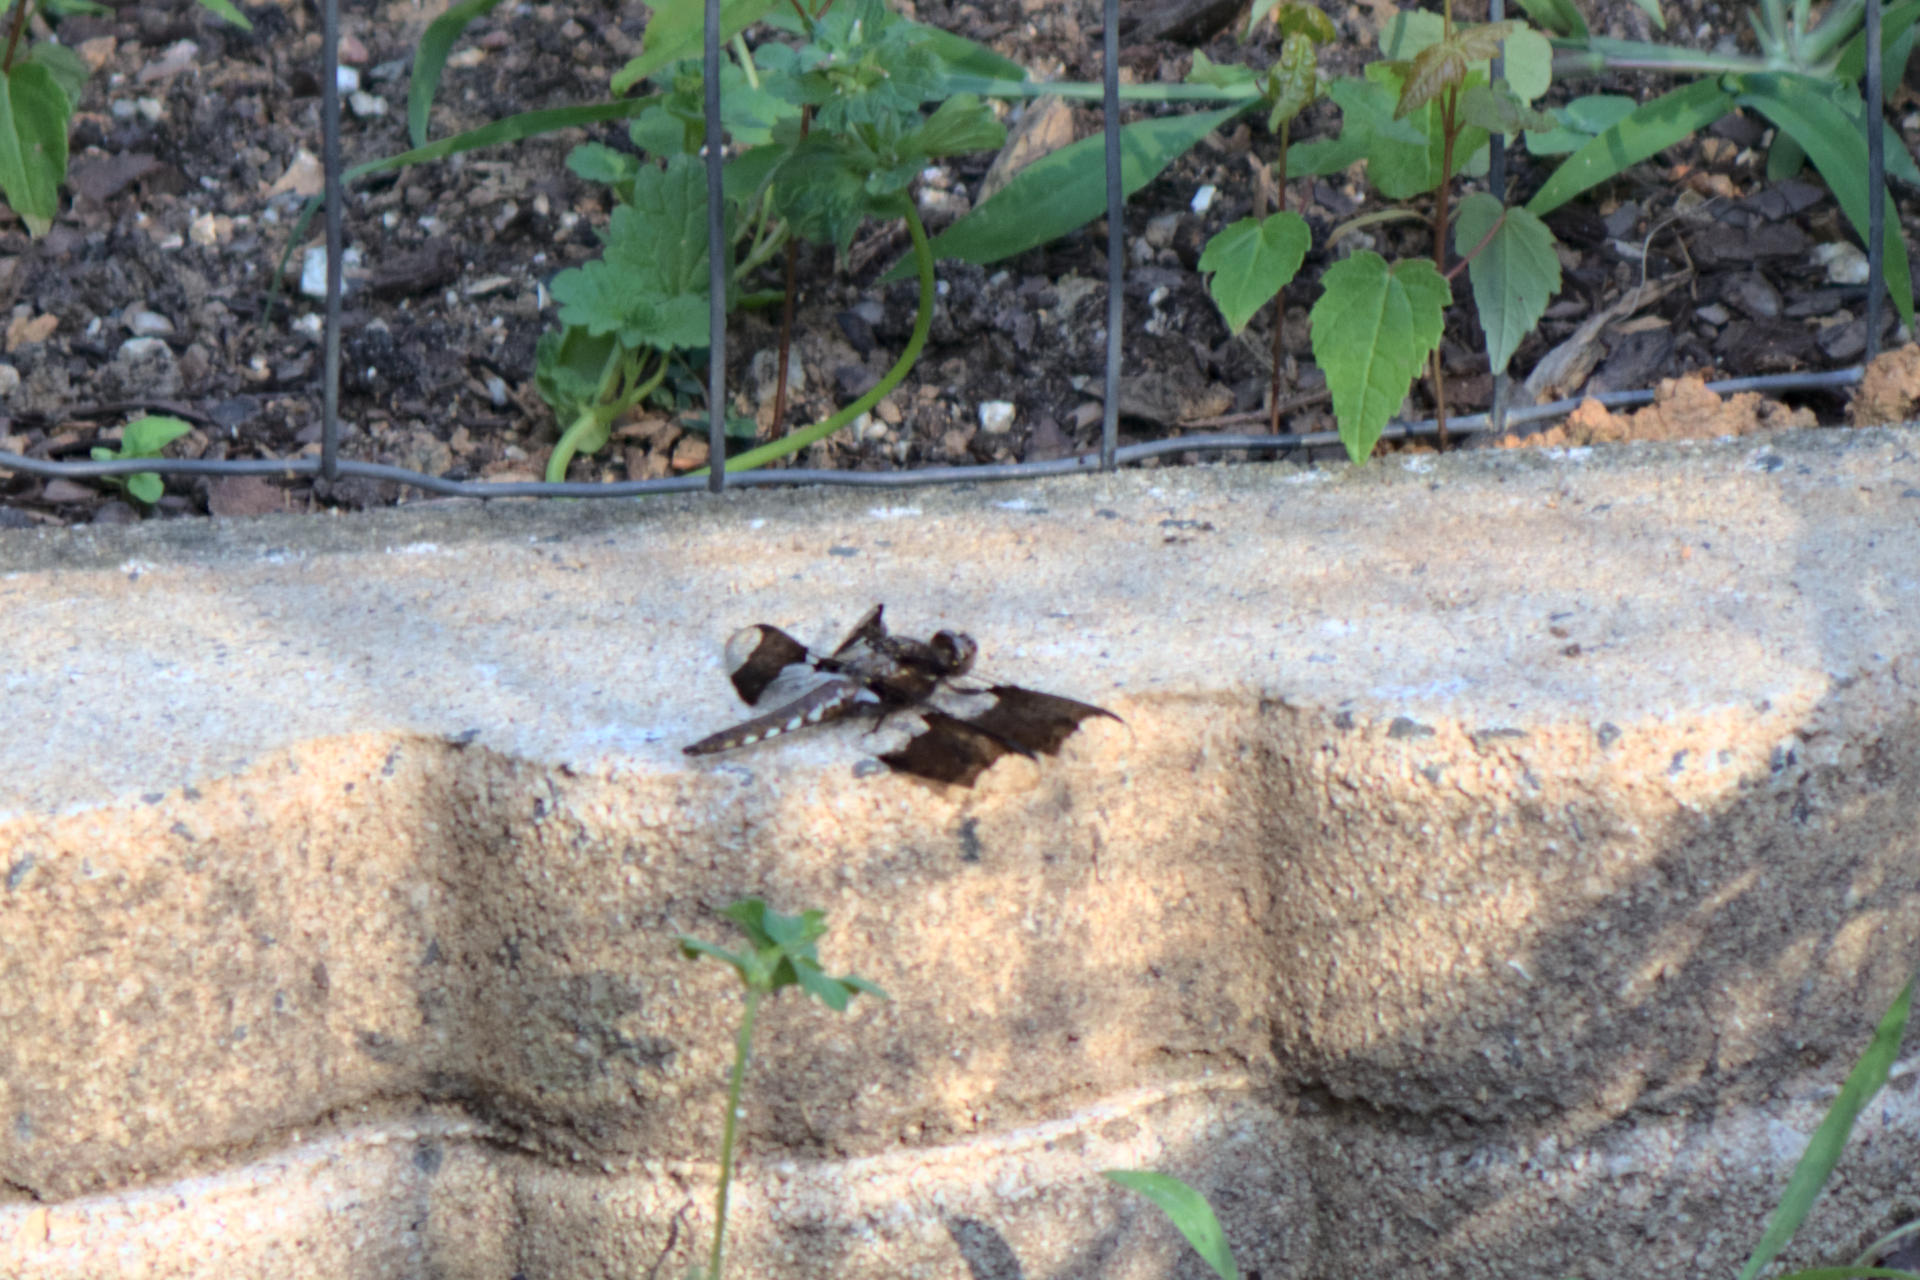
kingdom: Animalia
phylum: Arthropoda
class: Insecta
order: Odonata
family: Libellulidae
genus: Plathemis
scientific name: Plathemis lydia
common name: Common whitetail
